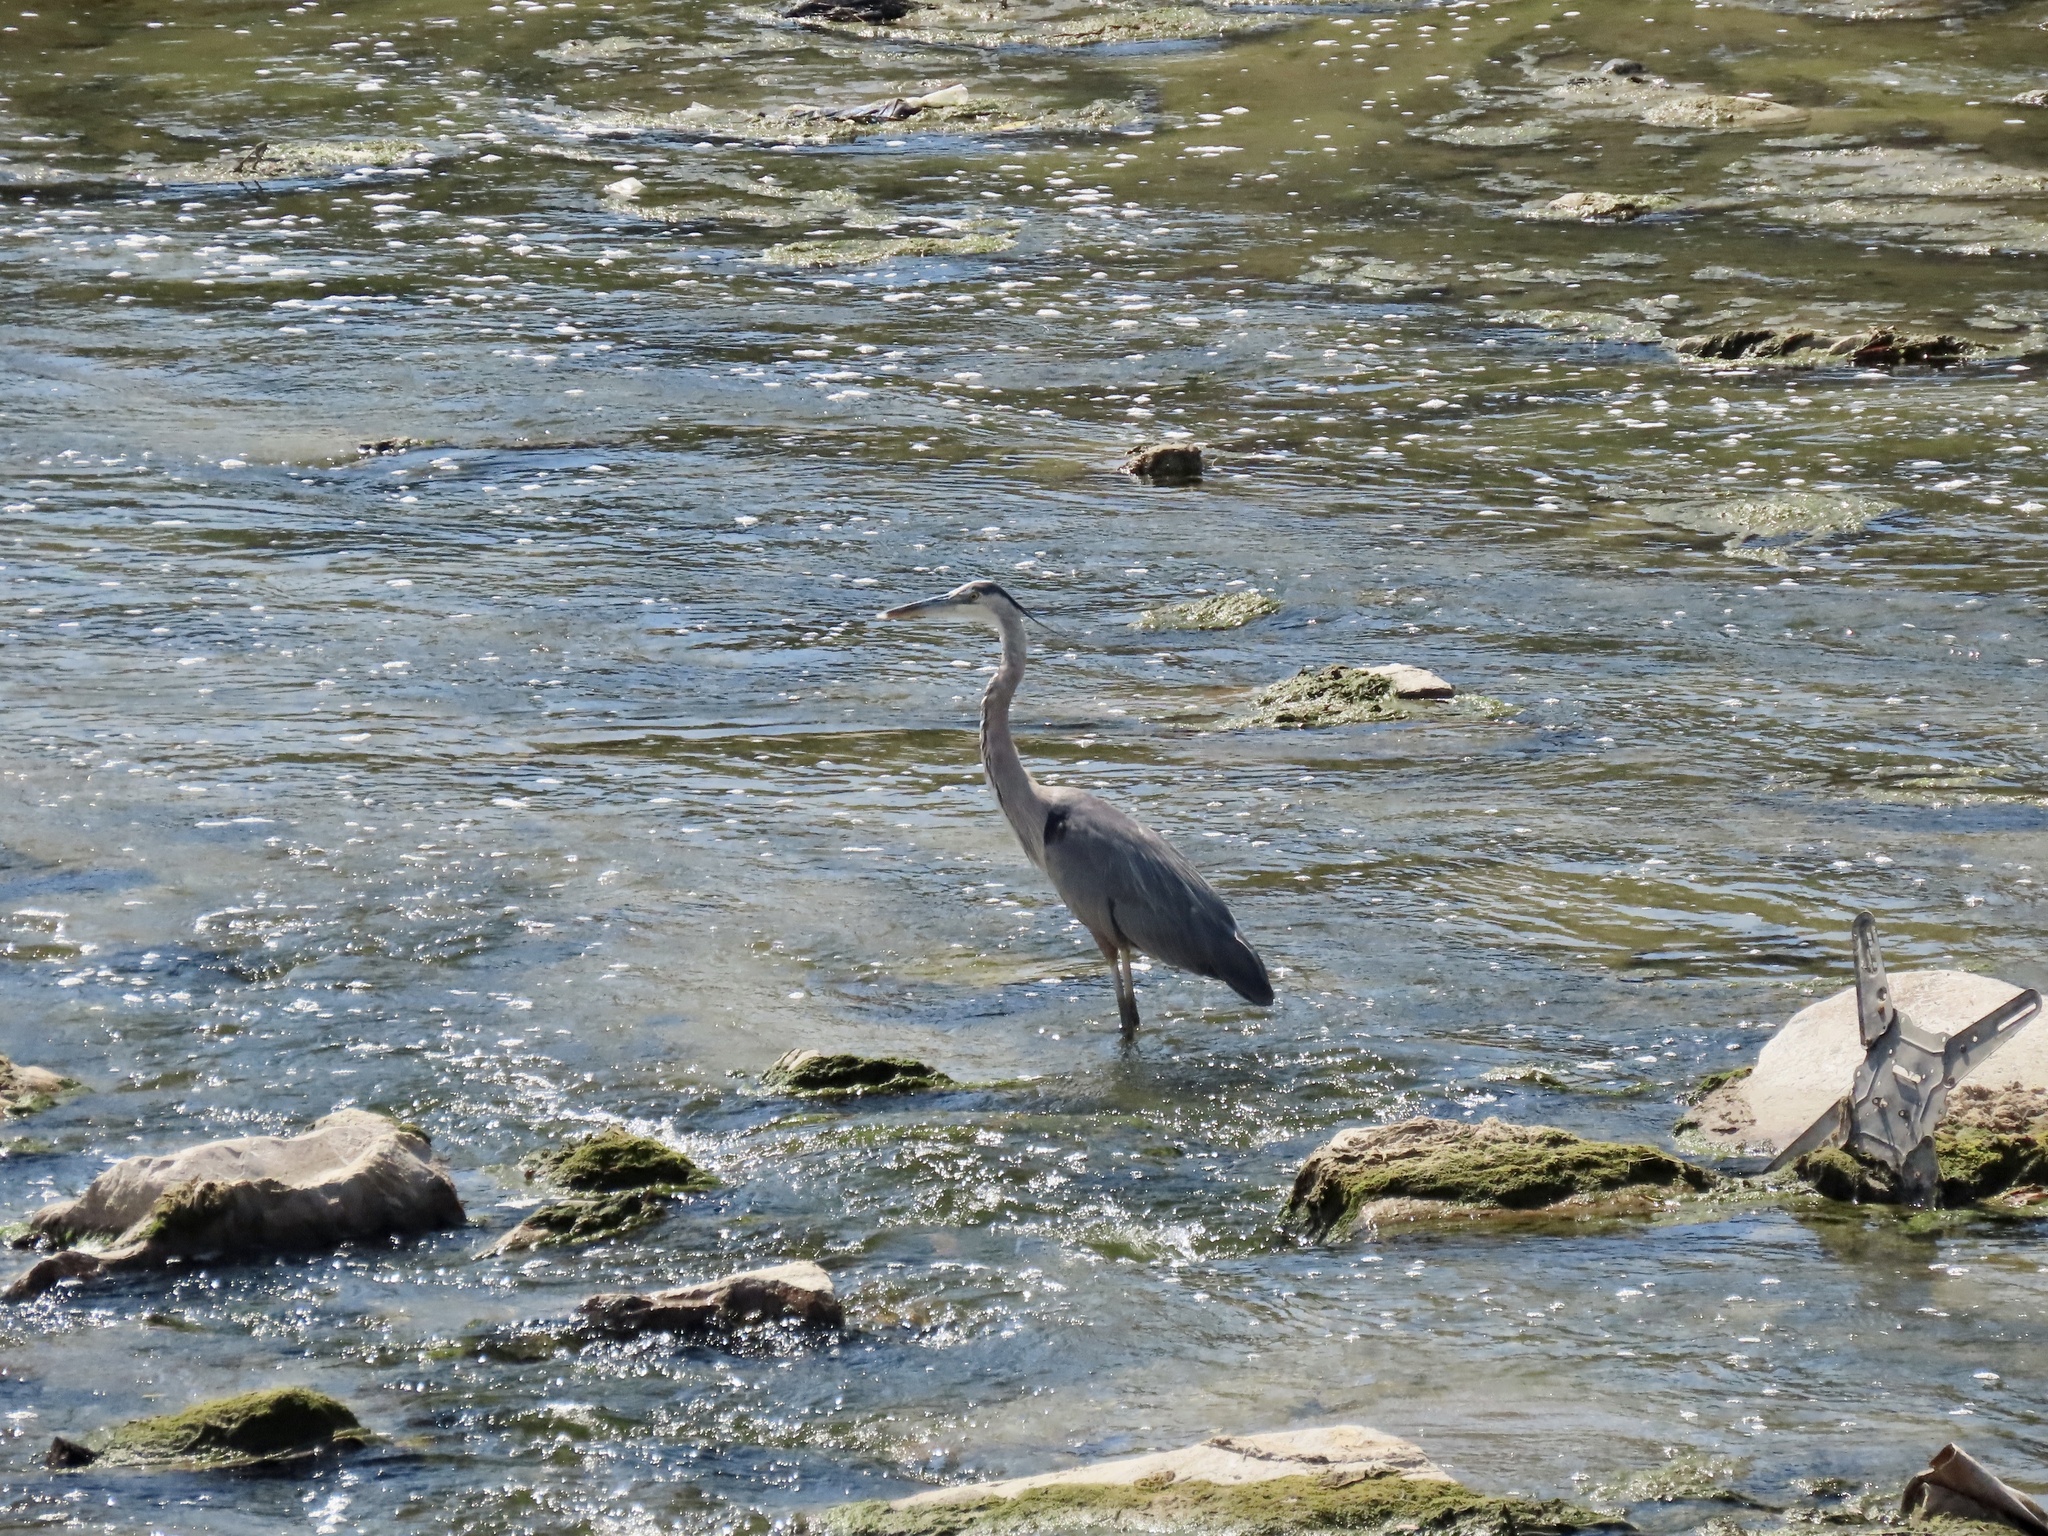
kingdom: Animalia
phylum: Chordata
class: Aves
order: Pelecaniformes
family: Ardeidae
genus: Ardea
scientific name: Ardea herodias
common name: Great blue heron
